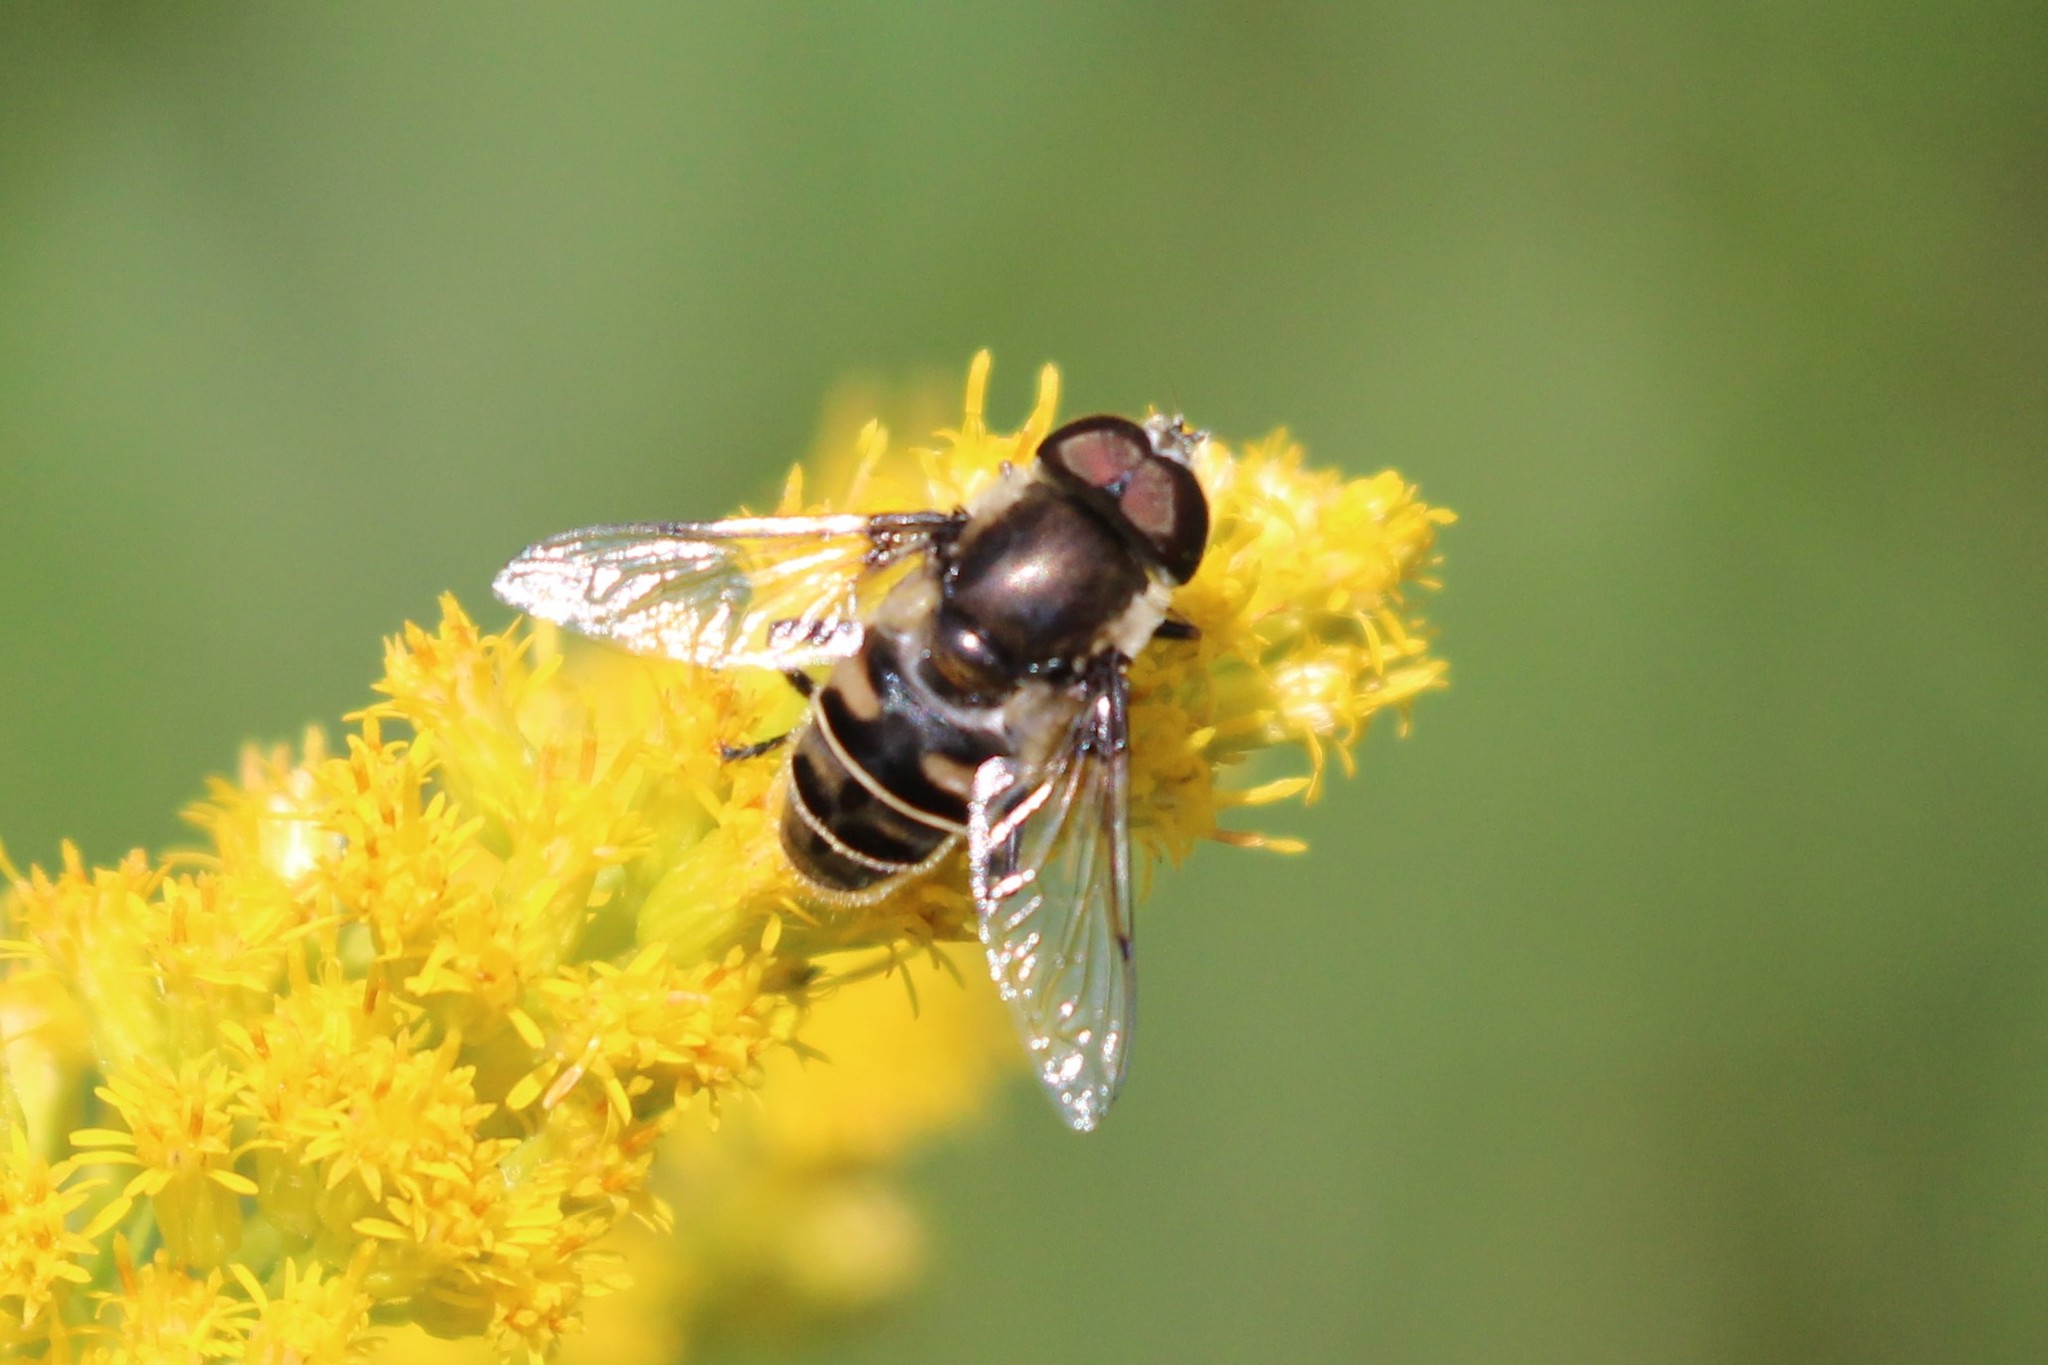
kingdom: Animalia
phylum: Arthropoda
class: Insecta
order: Diptera
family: Syrphidae
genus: Eristalis
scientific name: Eristalis dimidiata
